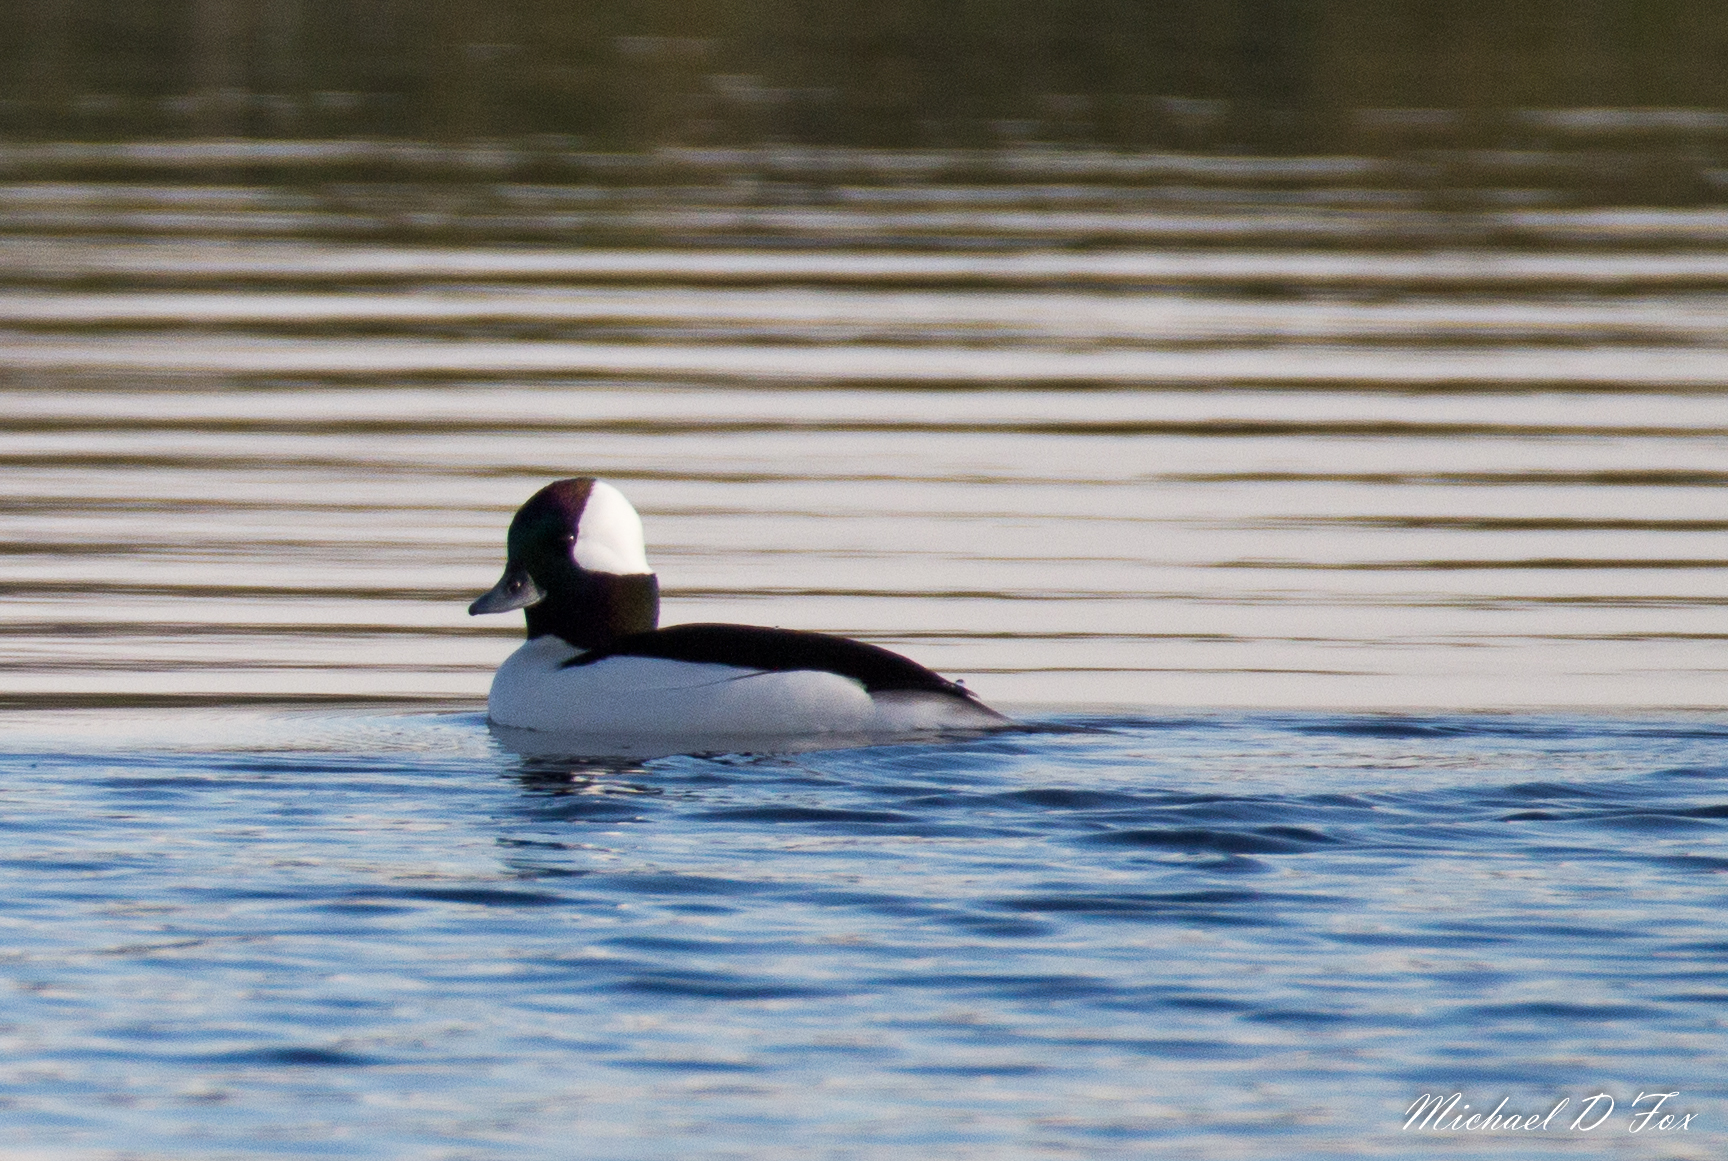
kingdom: Animalia
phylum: Chordata
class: Aves
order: Anseriformes
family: Anatidae
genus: Bucephala
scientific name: Bucephala albeola
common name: Bufflehead
